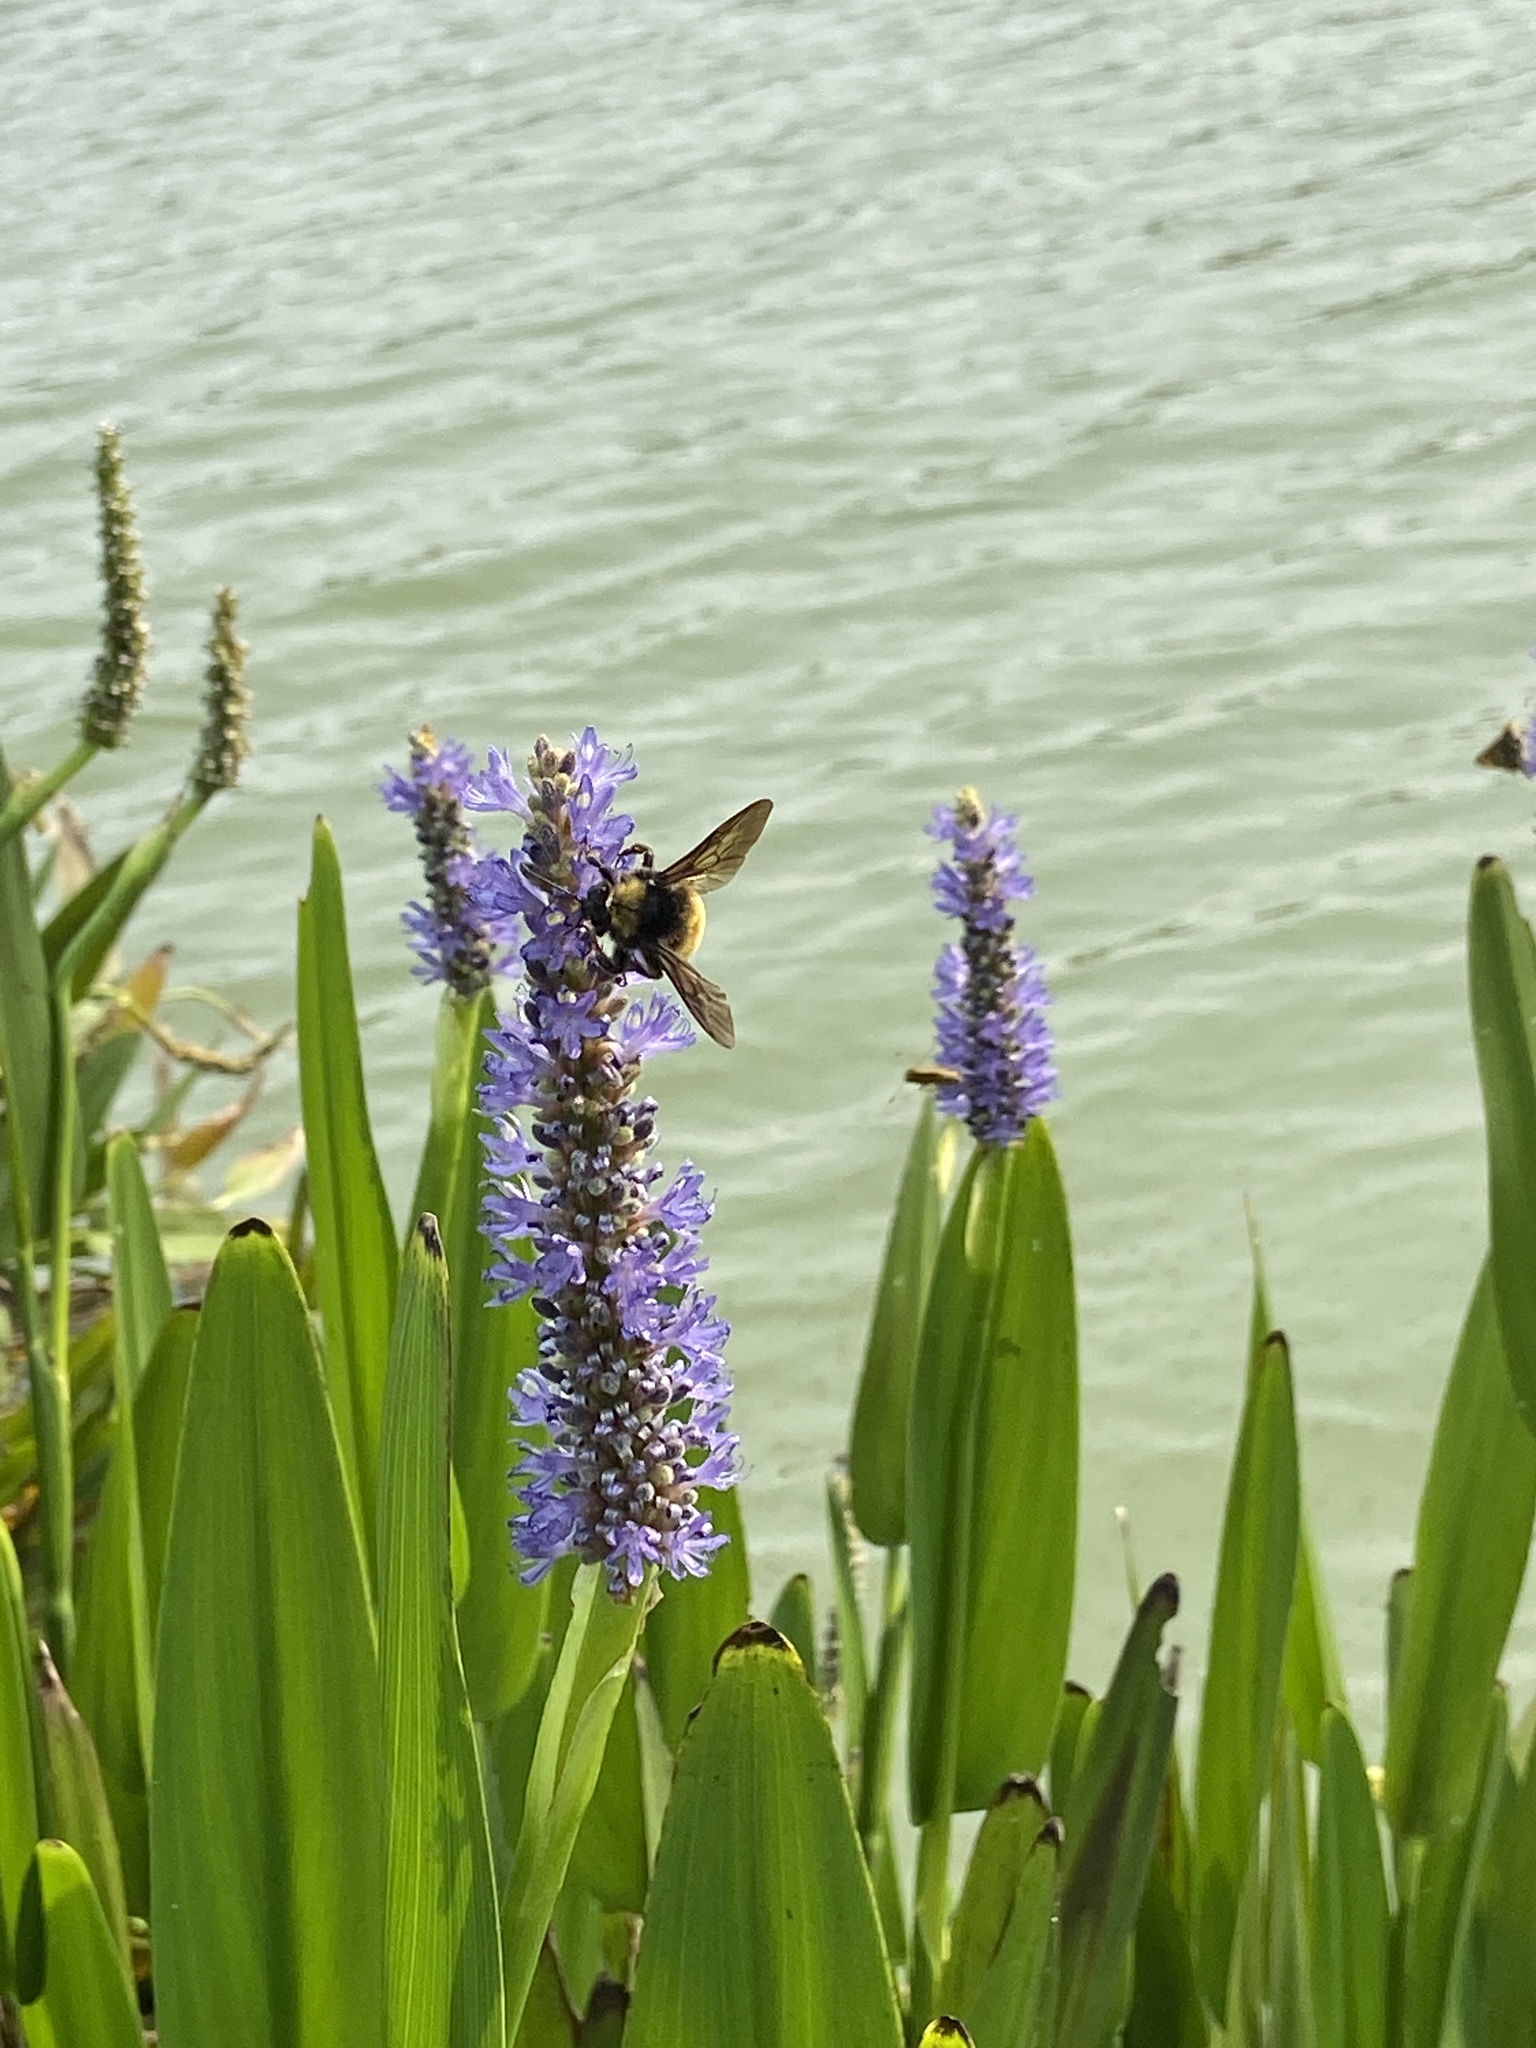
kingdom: Animalia
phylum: Arthropoda
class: Insecta
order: Hymenoptera
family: Apidae
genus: Bombus
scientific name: Bombus pensylvanicus
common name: Bumble bee
